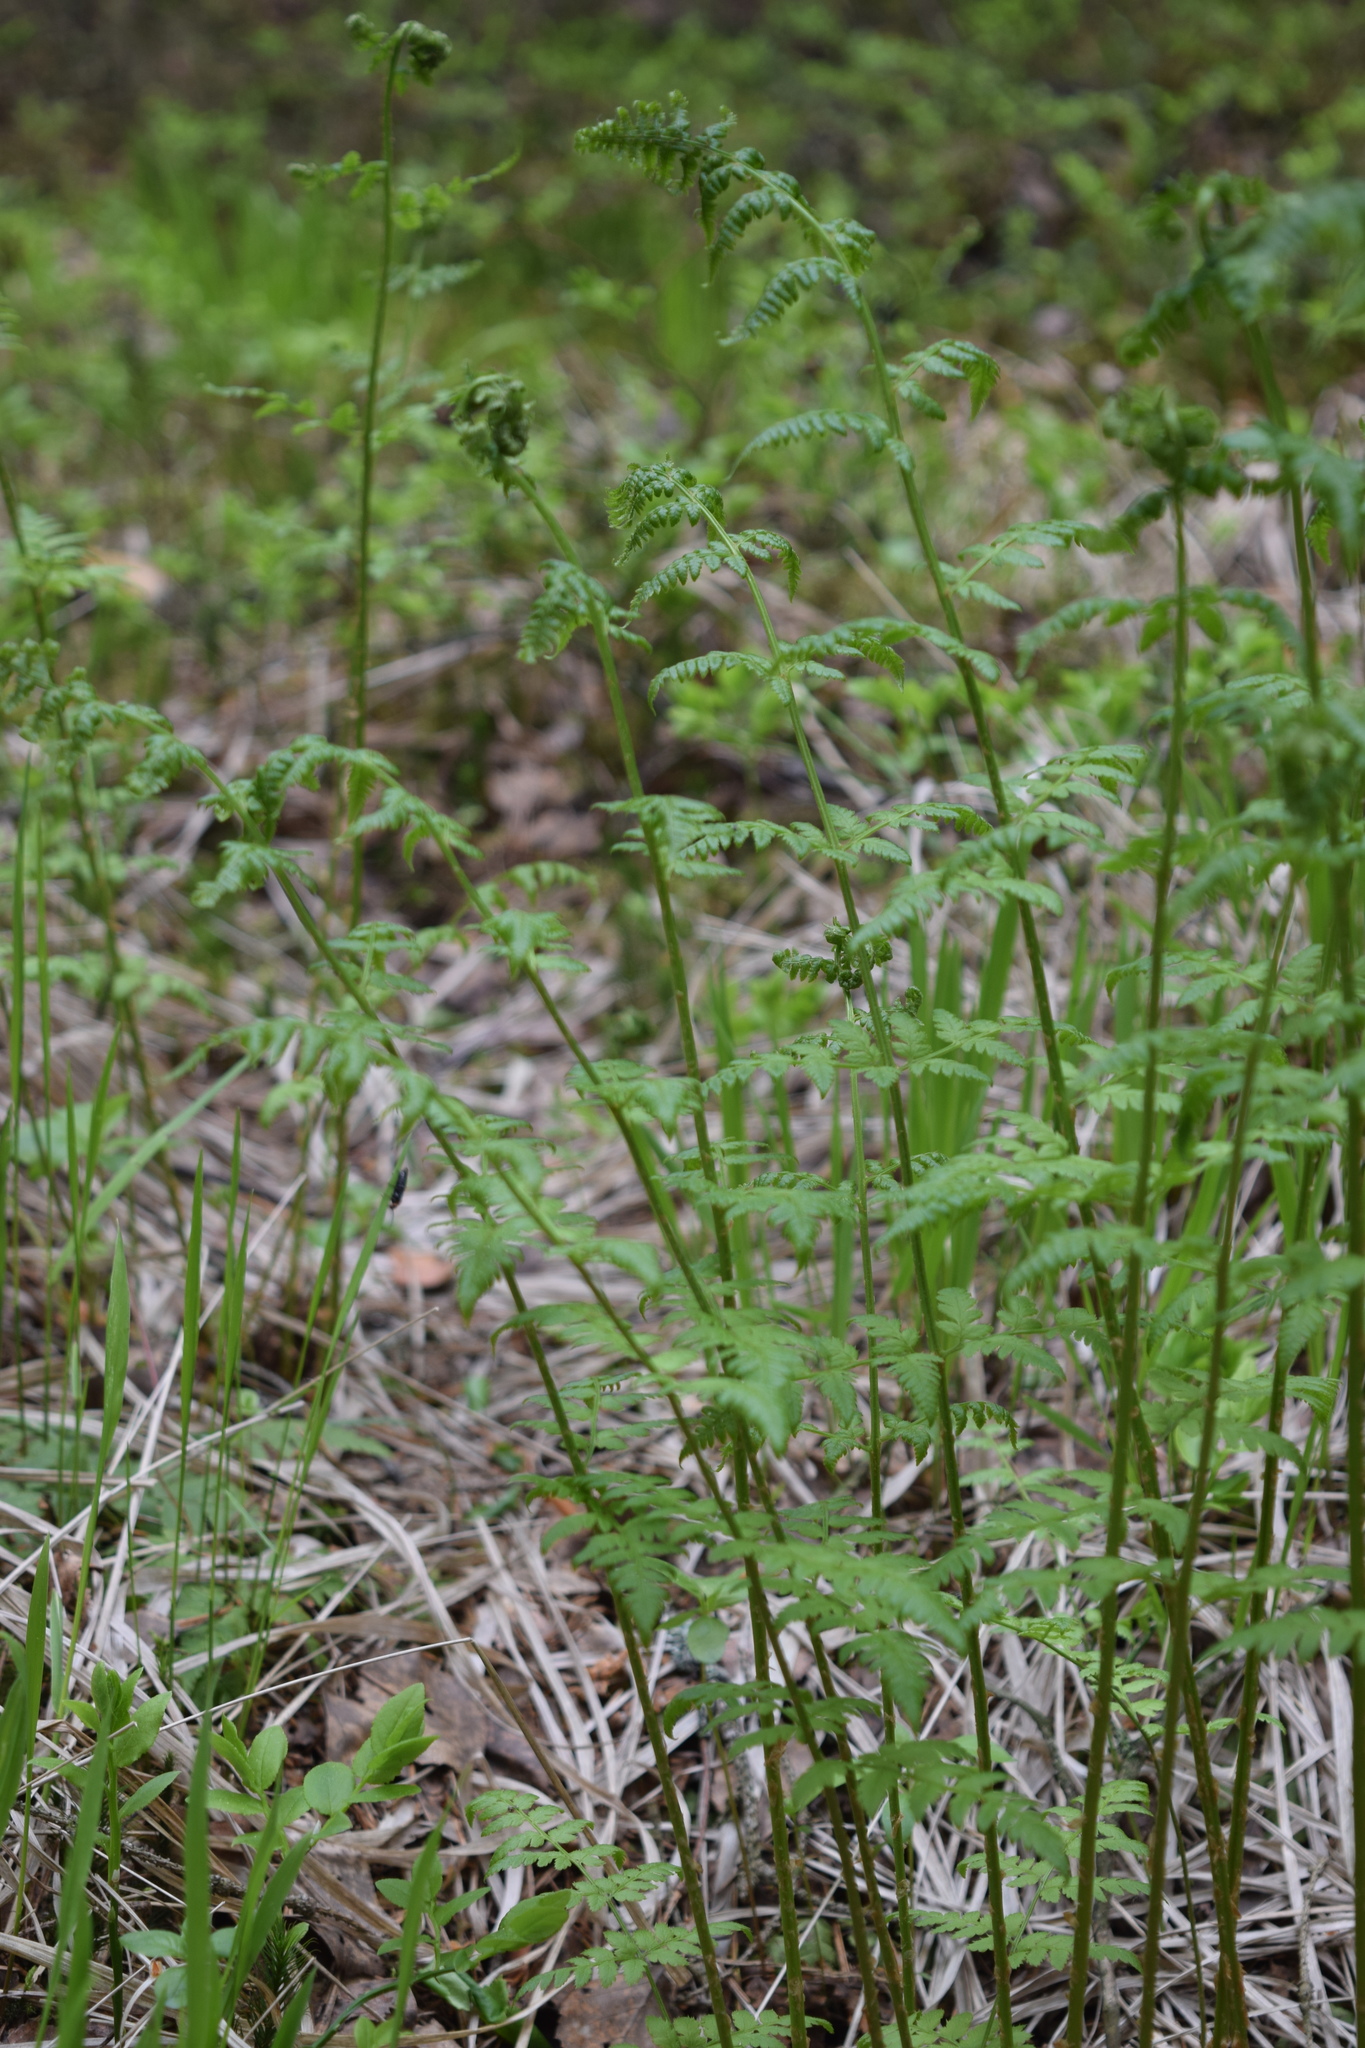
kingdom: Plantae
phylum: Tracheophyta
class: Polypodiopsida
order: Polypodiales
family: Dryopteridaceae
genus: Dryopteris
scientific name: Dryopteris carthusiana
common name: Narrow buckler-fern
